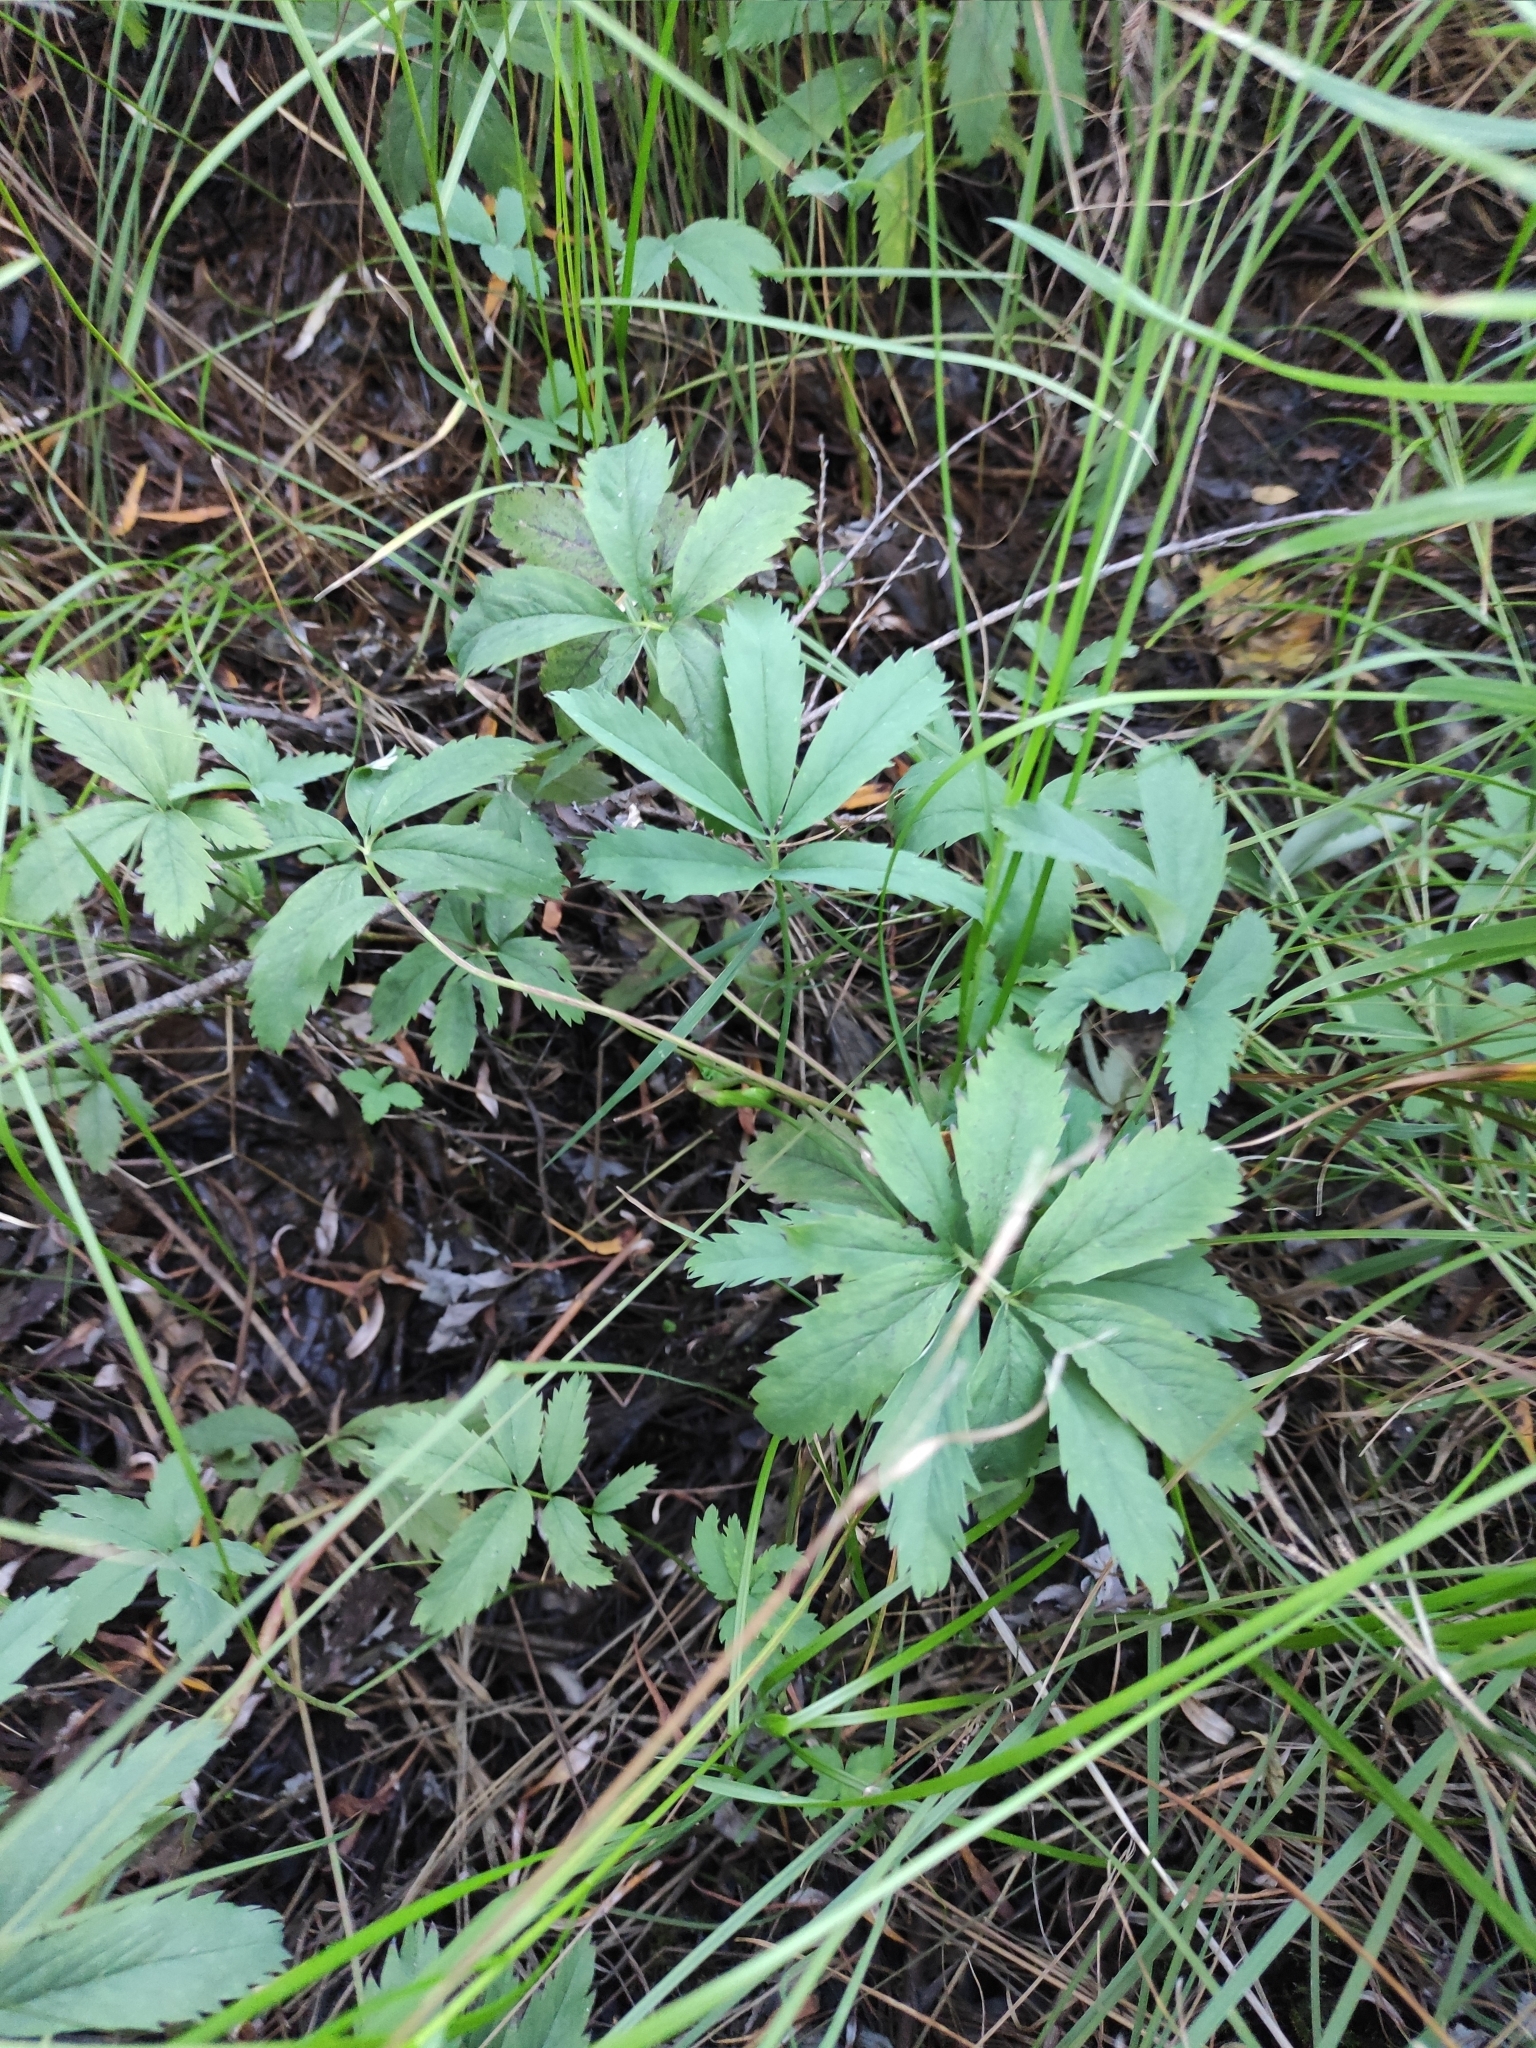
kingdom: Plantae
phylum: Tracheophyta
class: Magnoliopsida
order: Rosales
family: Rosaceae
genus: Comarum
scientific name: Comarum palustre
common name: Marsh cinquefoil
